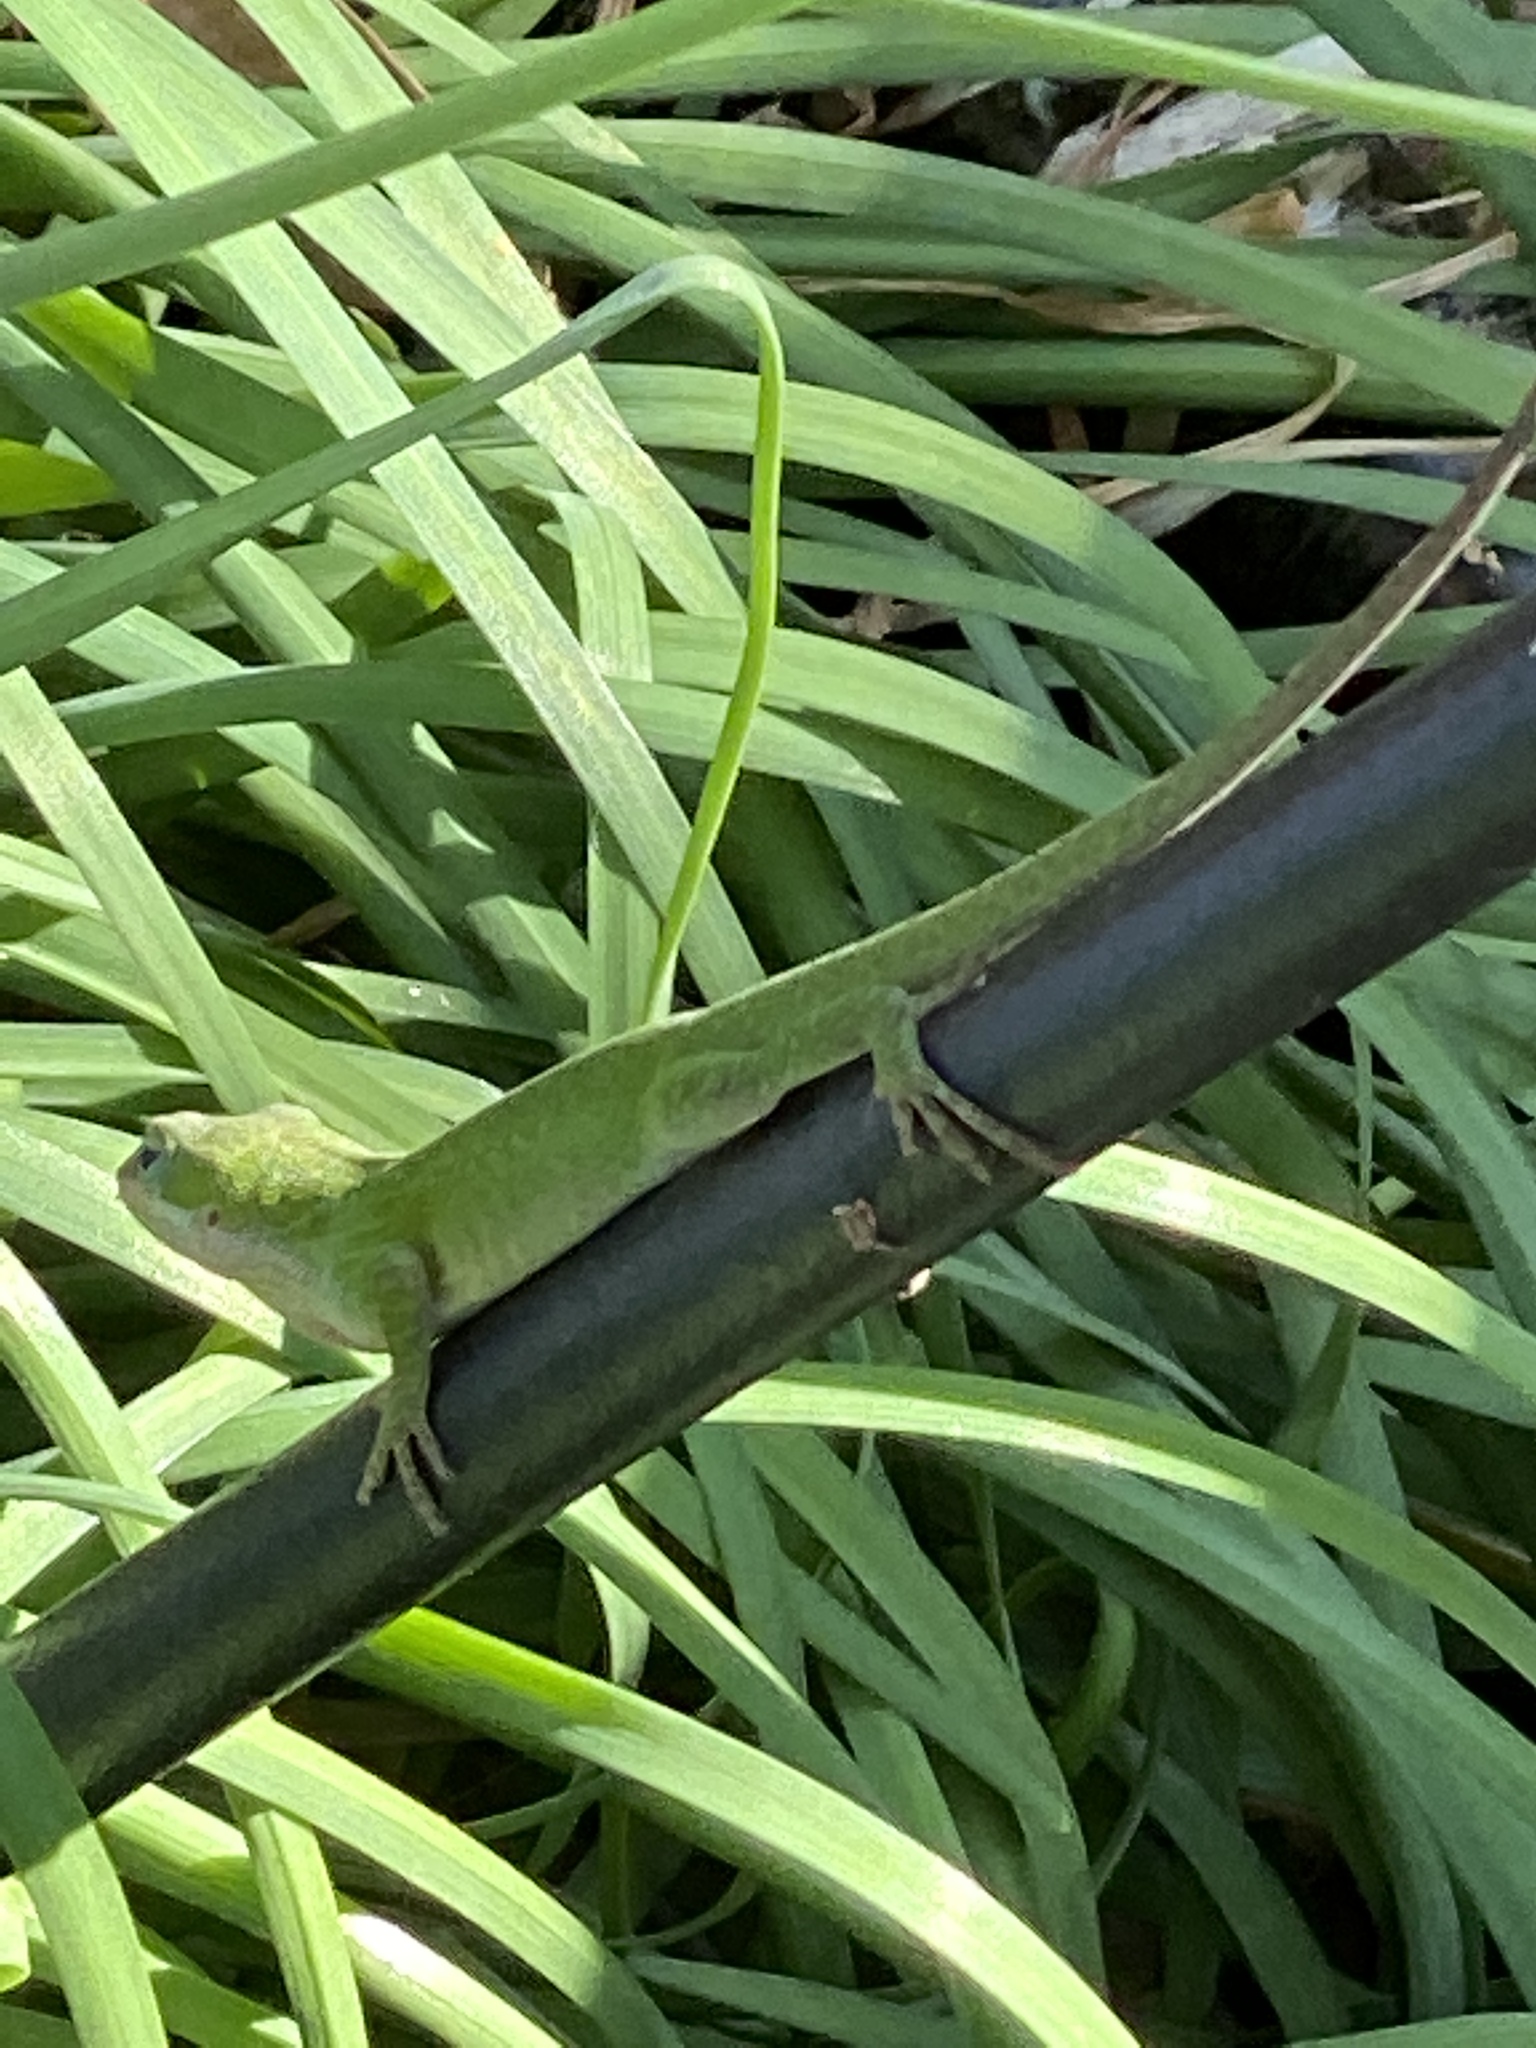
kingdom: Animalia
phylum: Chordata
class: Squamata
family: Dactyloidae
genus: Anolis
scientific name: Anolis carolinensis
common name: Green anole
